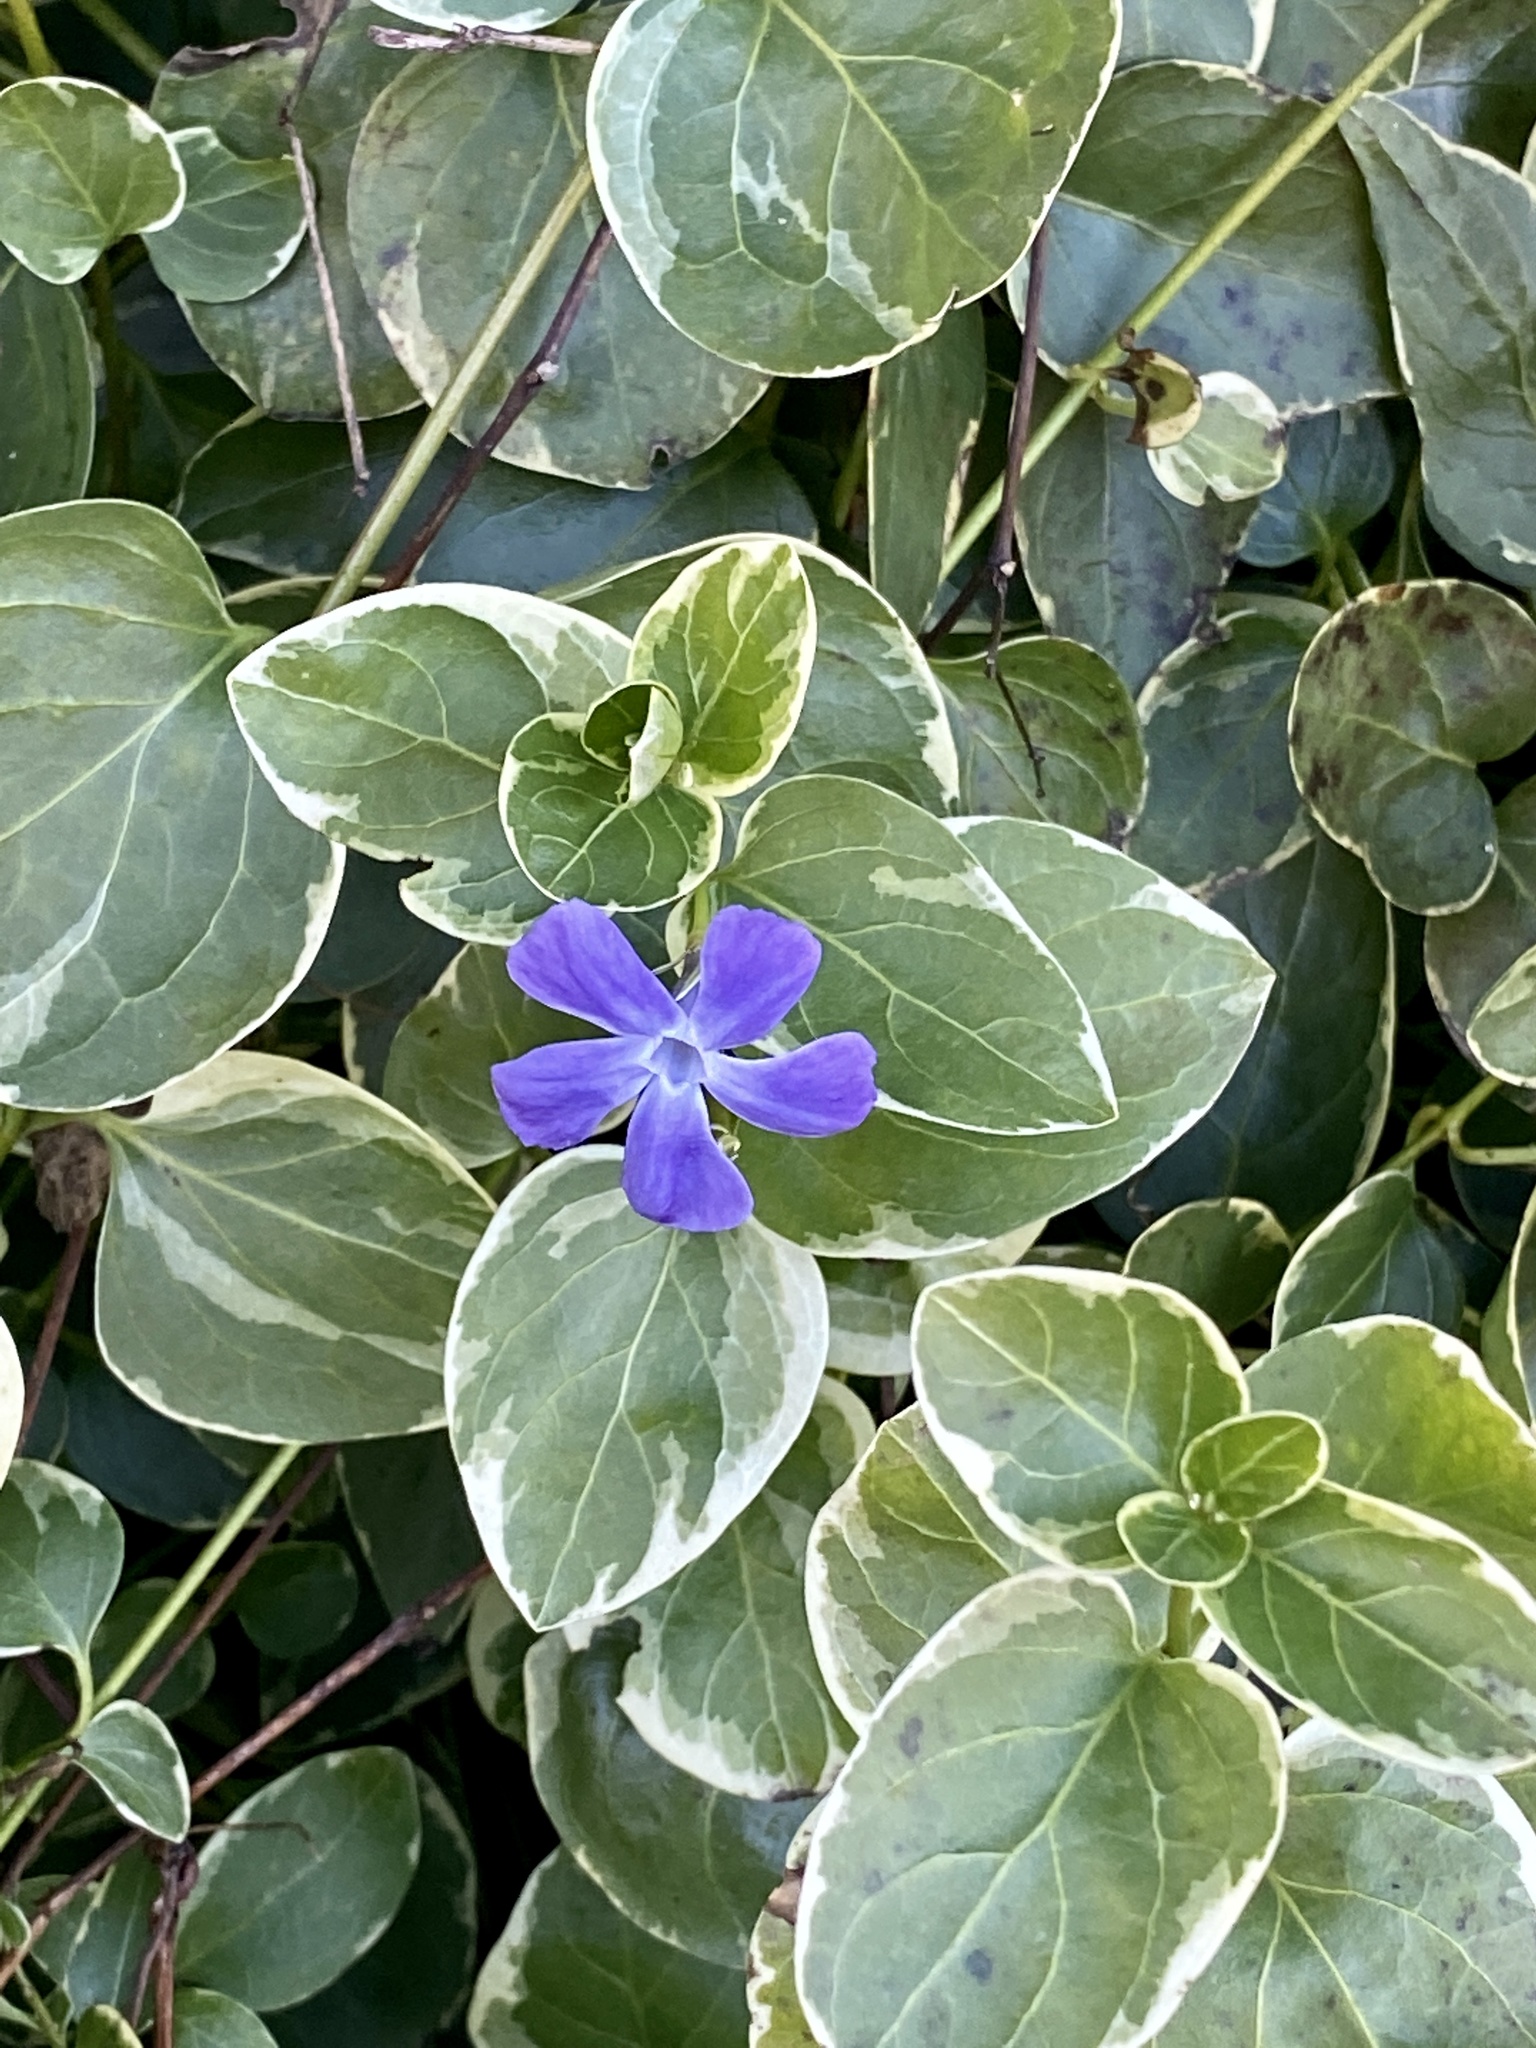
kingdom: Plantae
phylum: Tracheophyta
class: Magnoliopsida
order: Gentianales
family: Apocynaceae
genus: Vinca
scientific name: Vinca major
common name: Greater periwinkle
